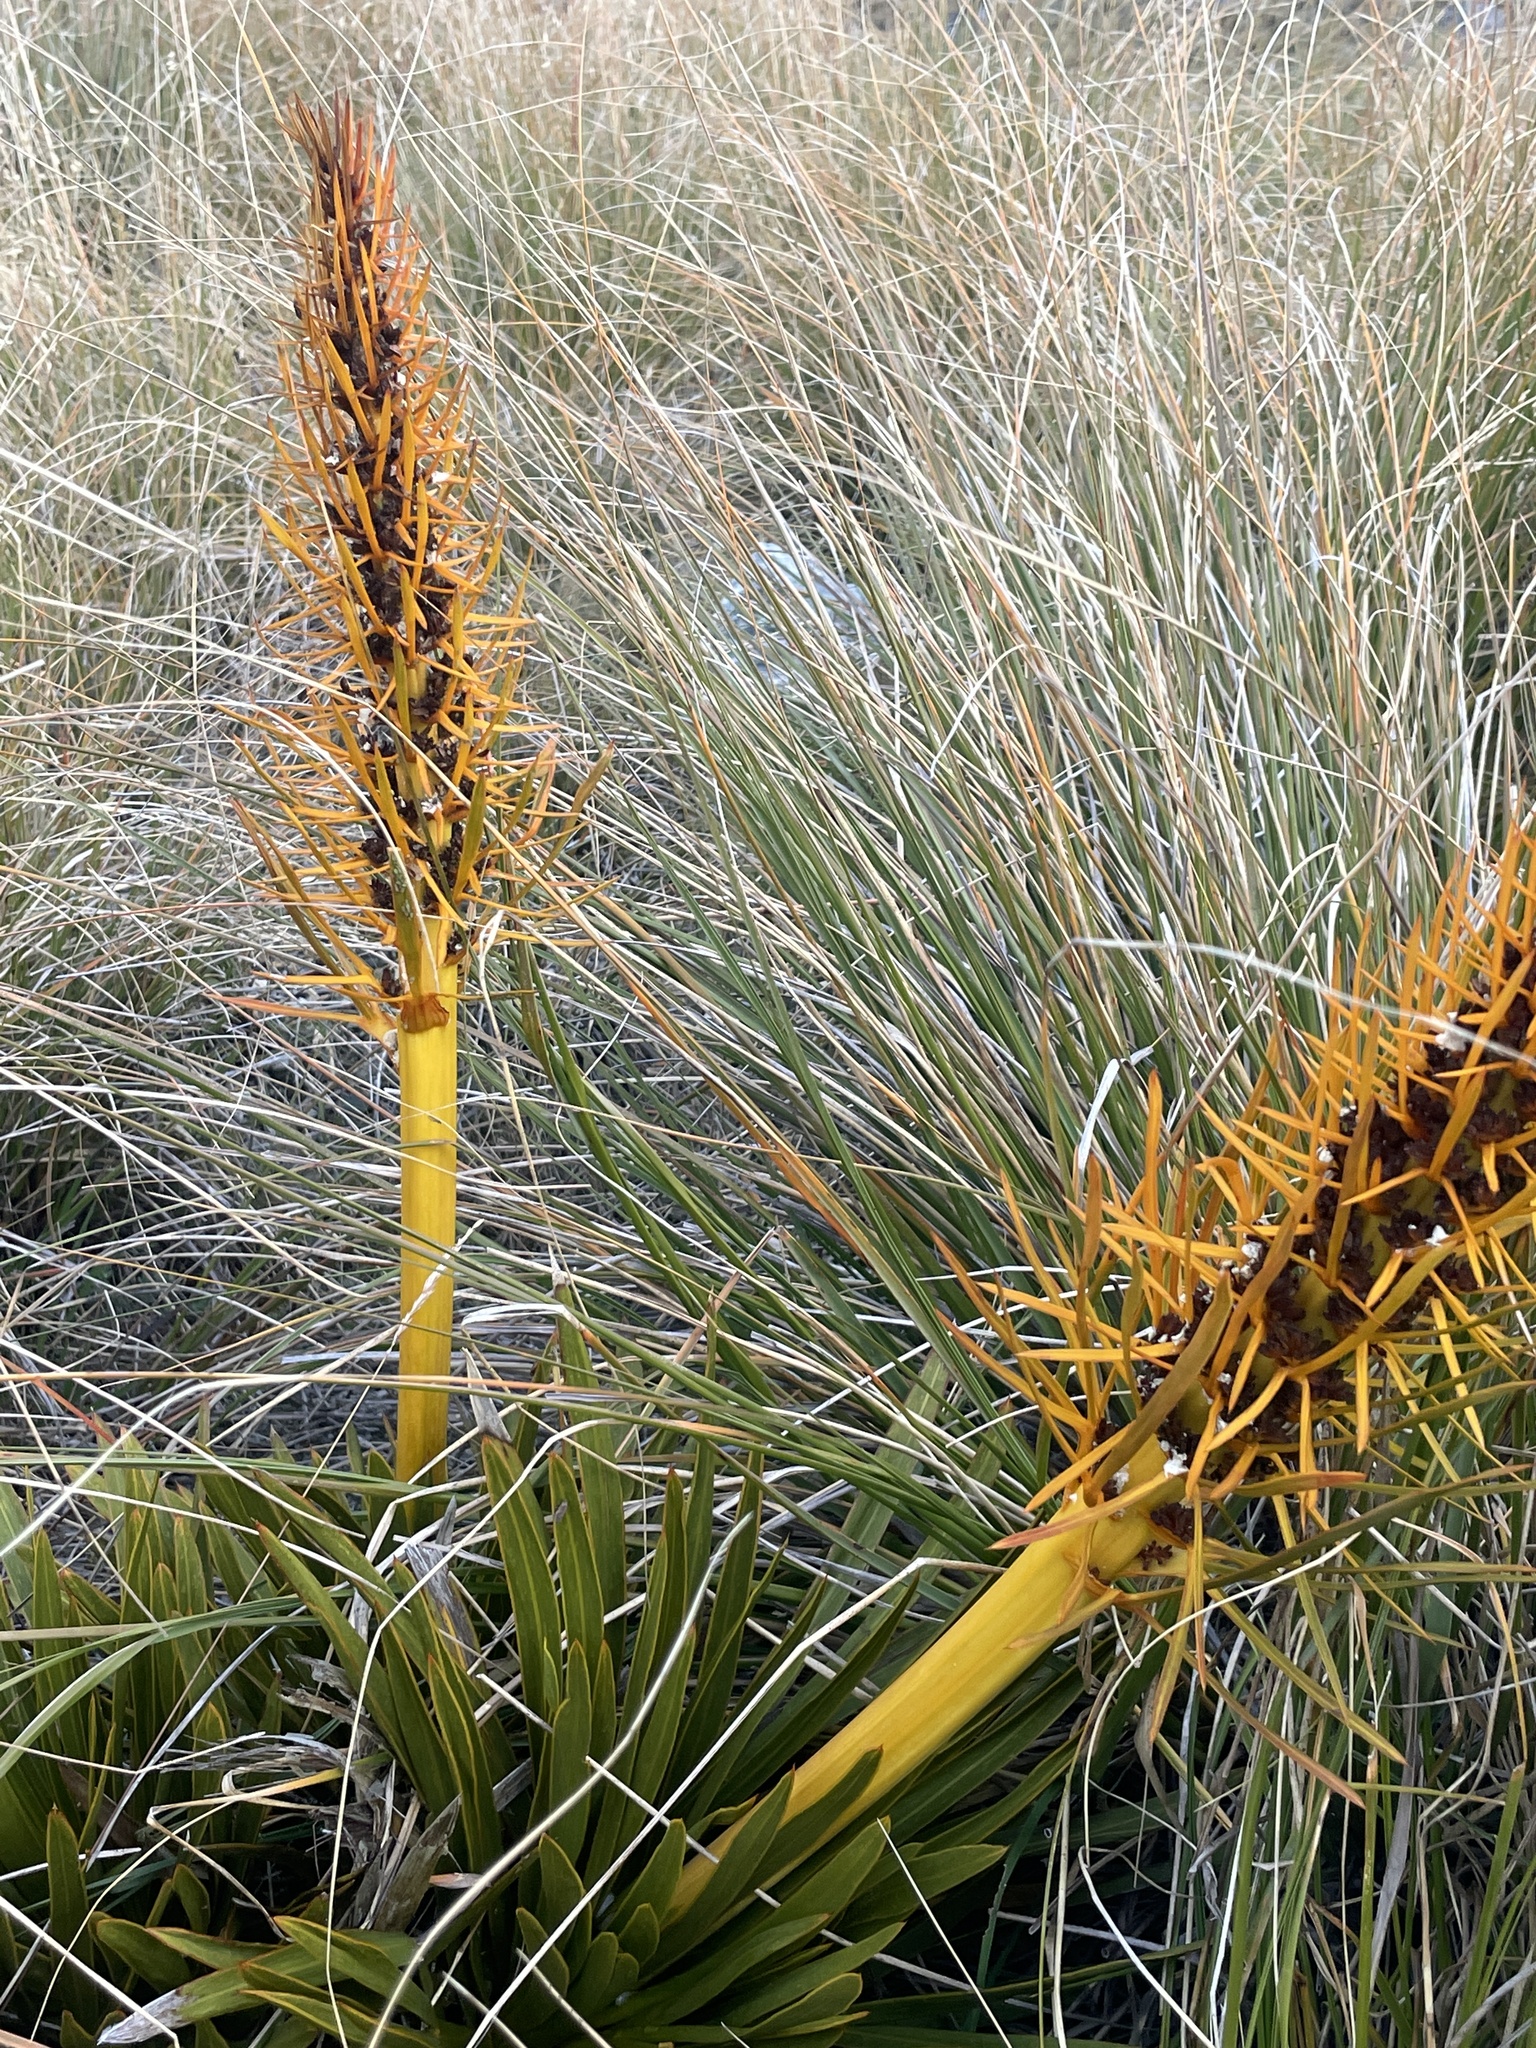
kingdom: Plantae
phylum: Tracheophyta
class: Magnoliopsida
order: Apiales
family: Apiaceae
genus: Aciphylla
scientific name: Aciphylla kirkii
